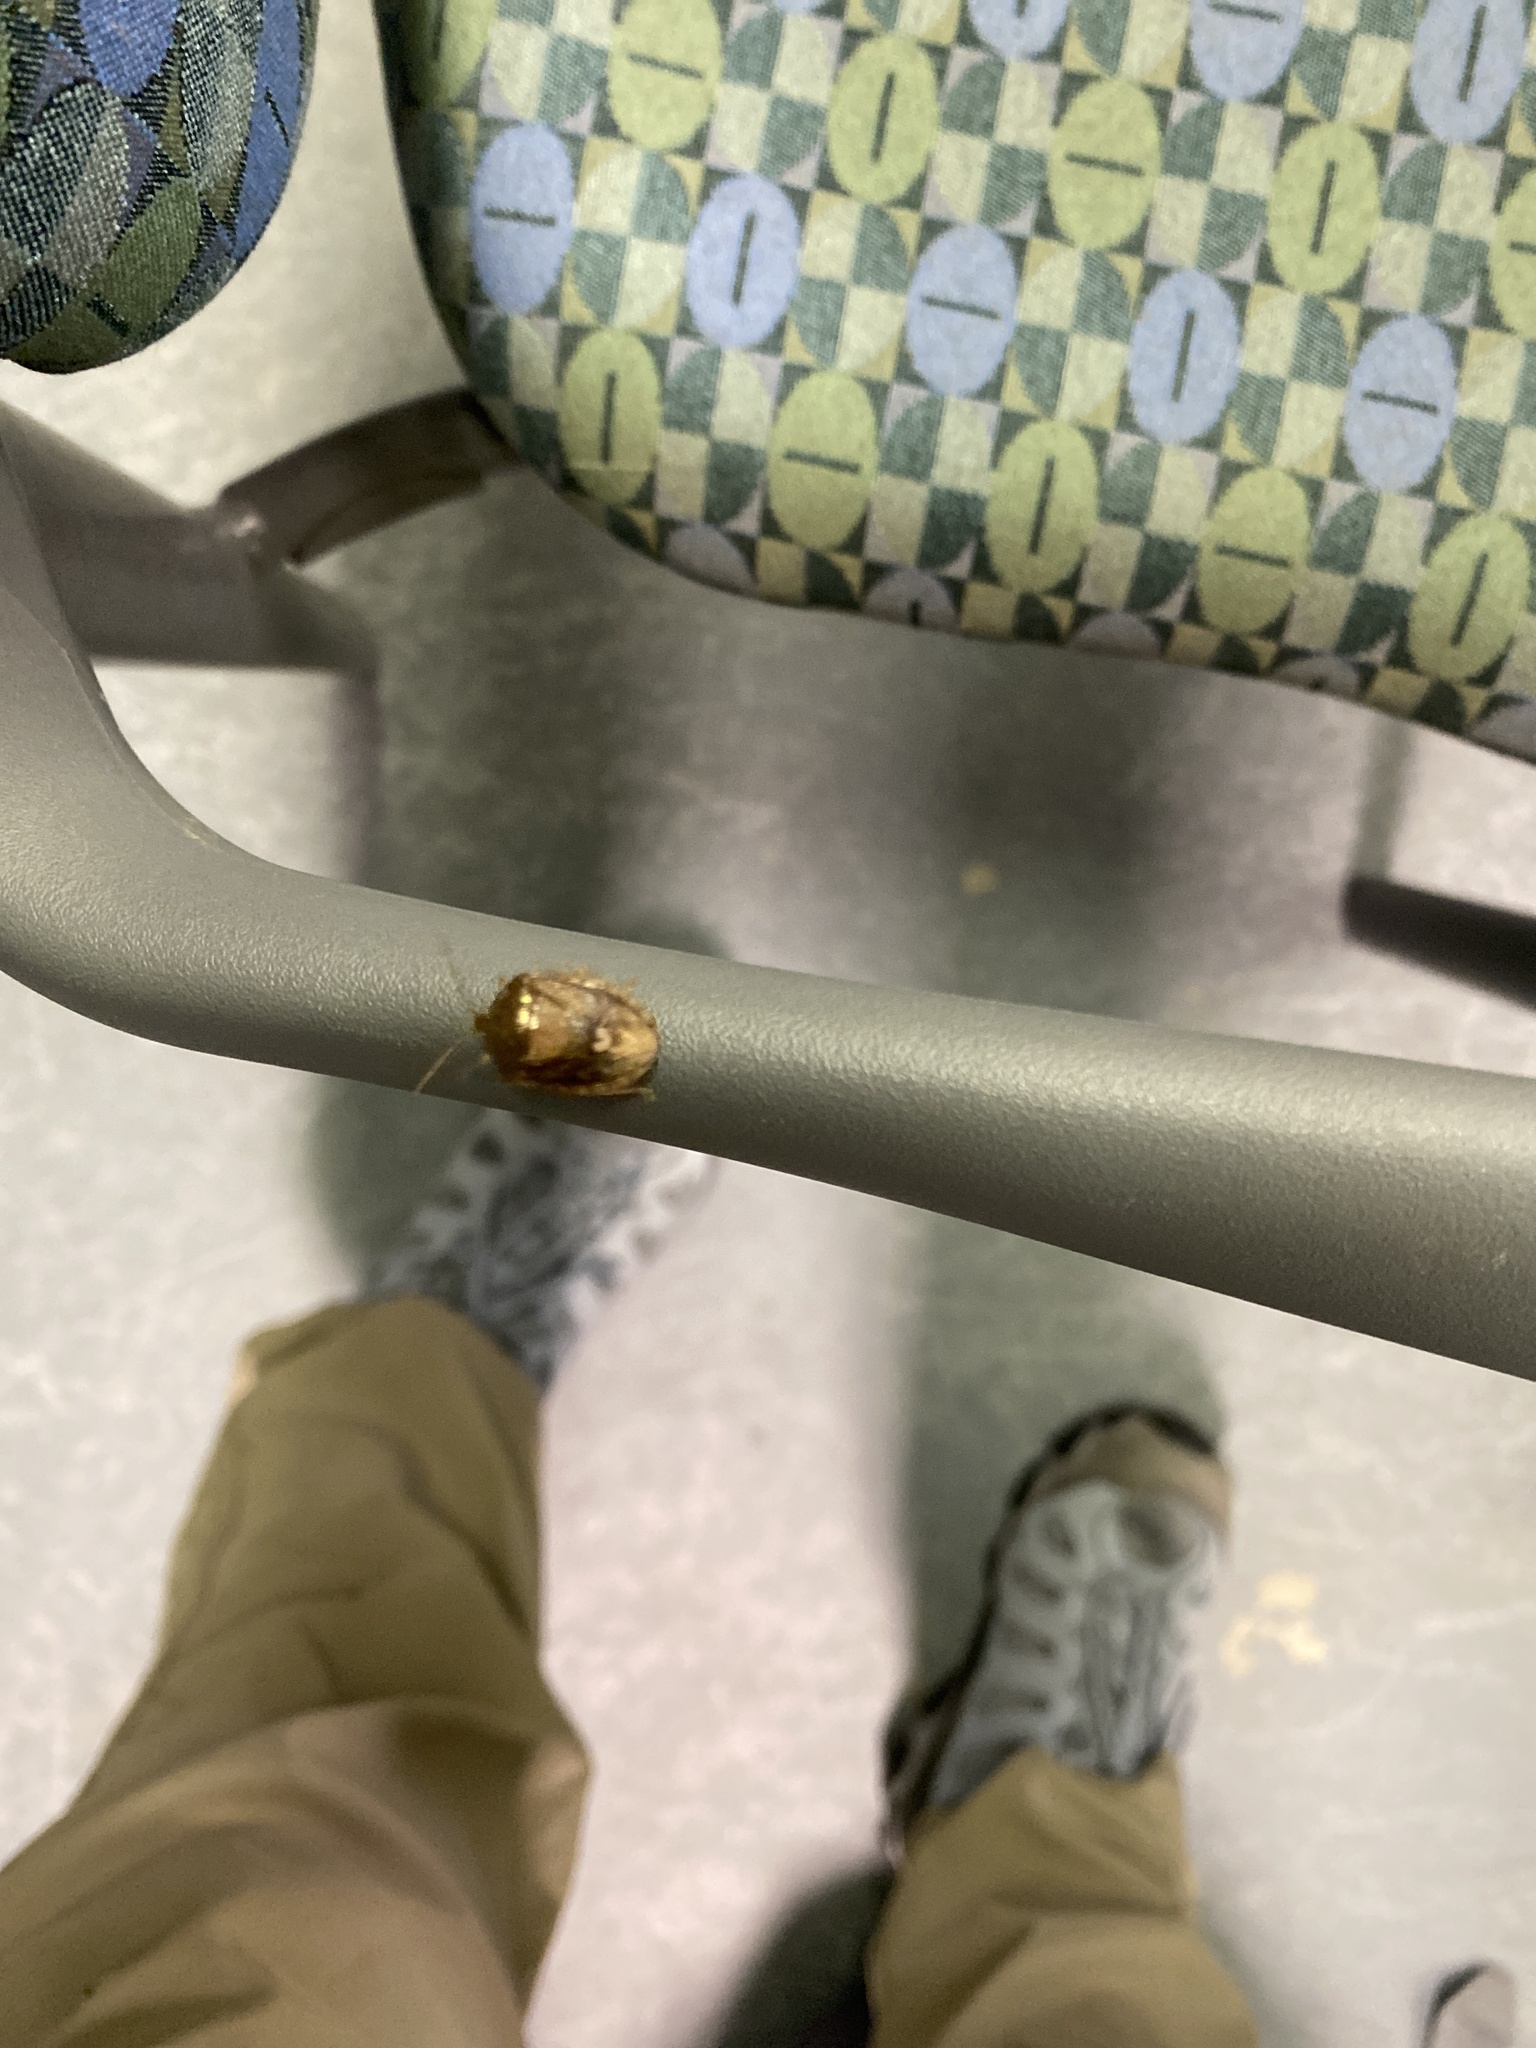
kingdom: Animalia
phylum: Arthropoda
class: Insecta
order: Hemiptera
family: Pentatomidae
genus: Edessa
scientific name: Edessa bifida
